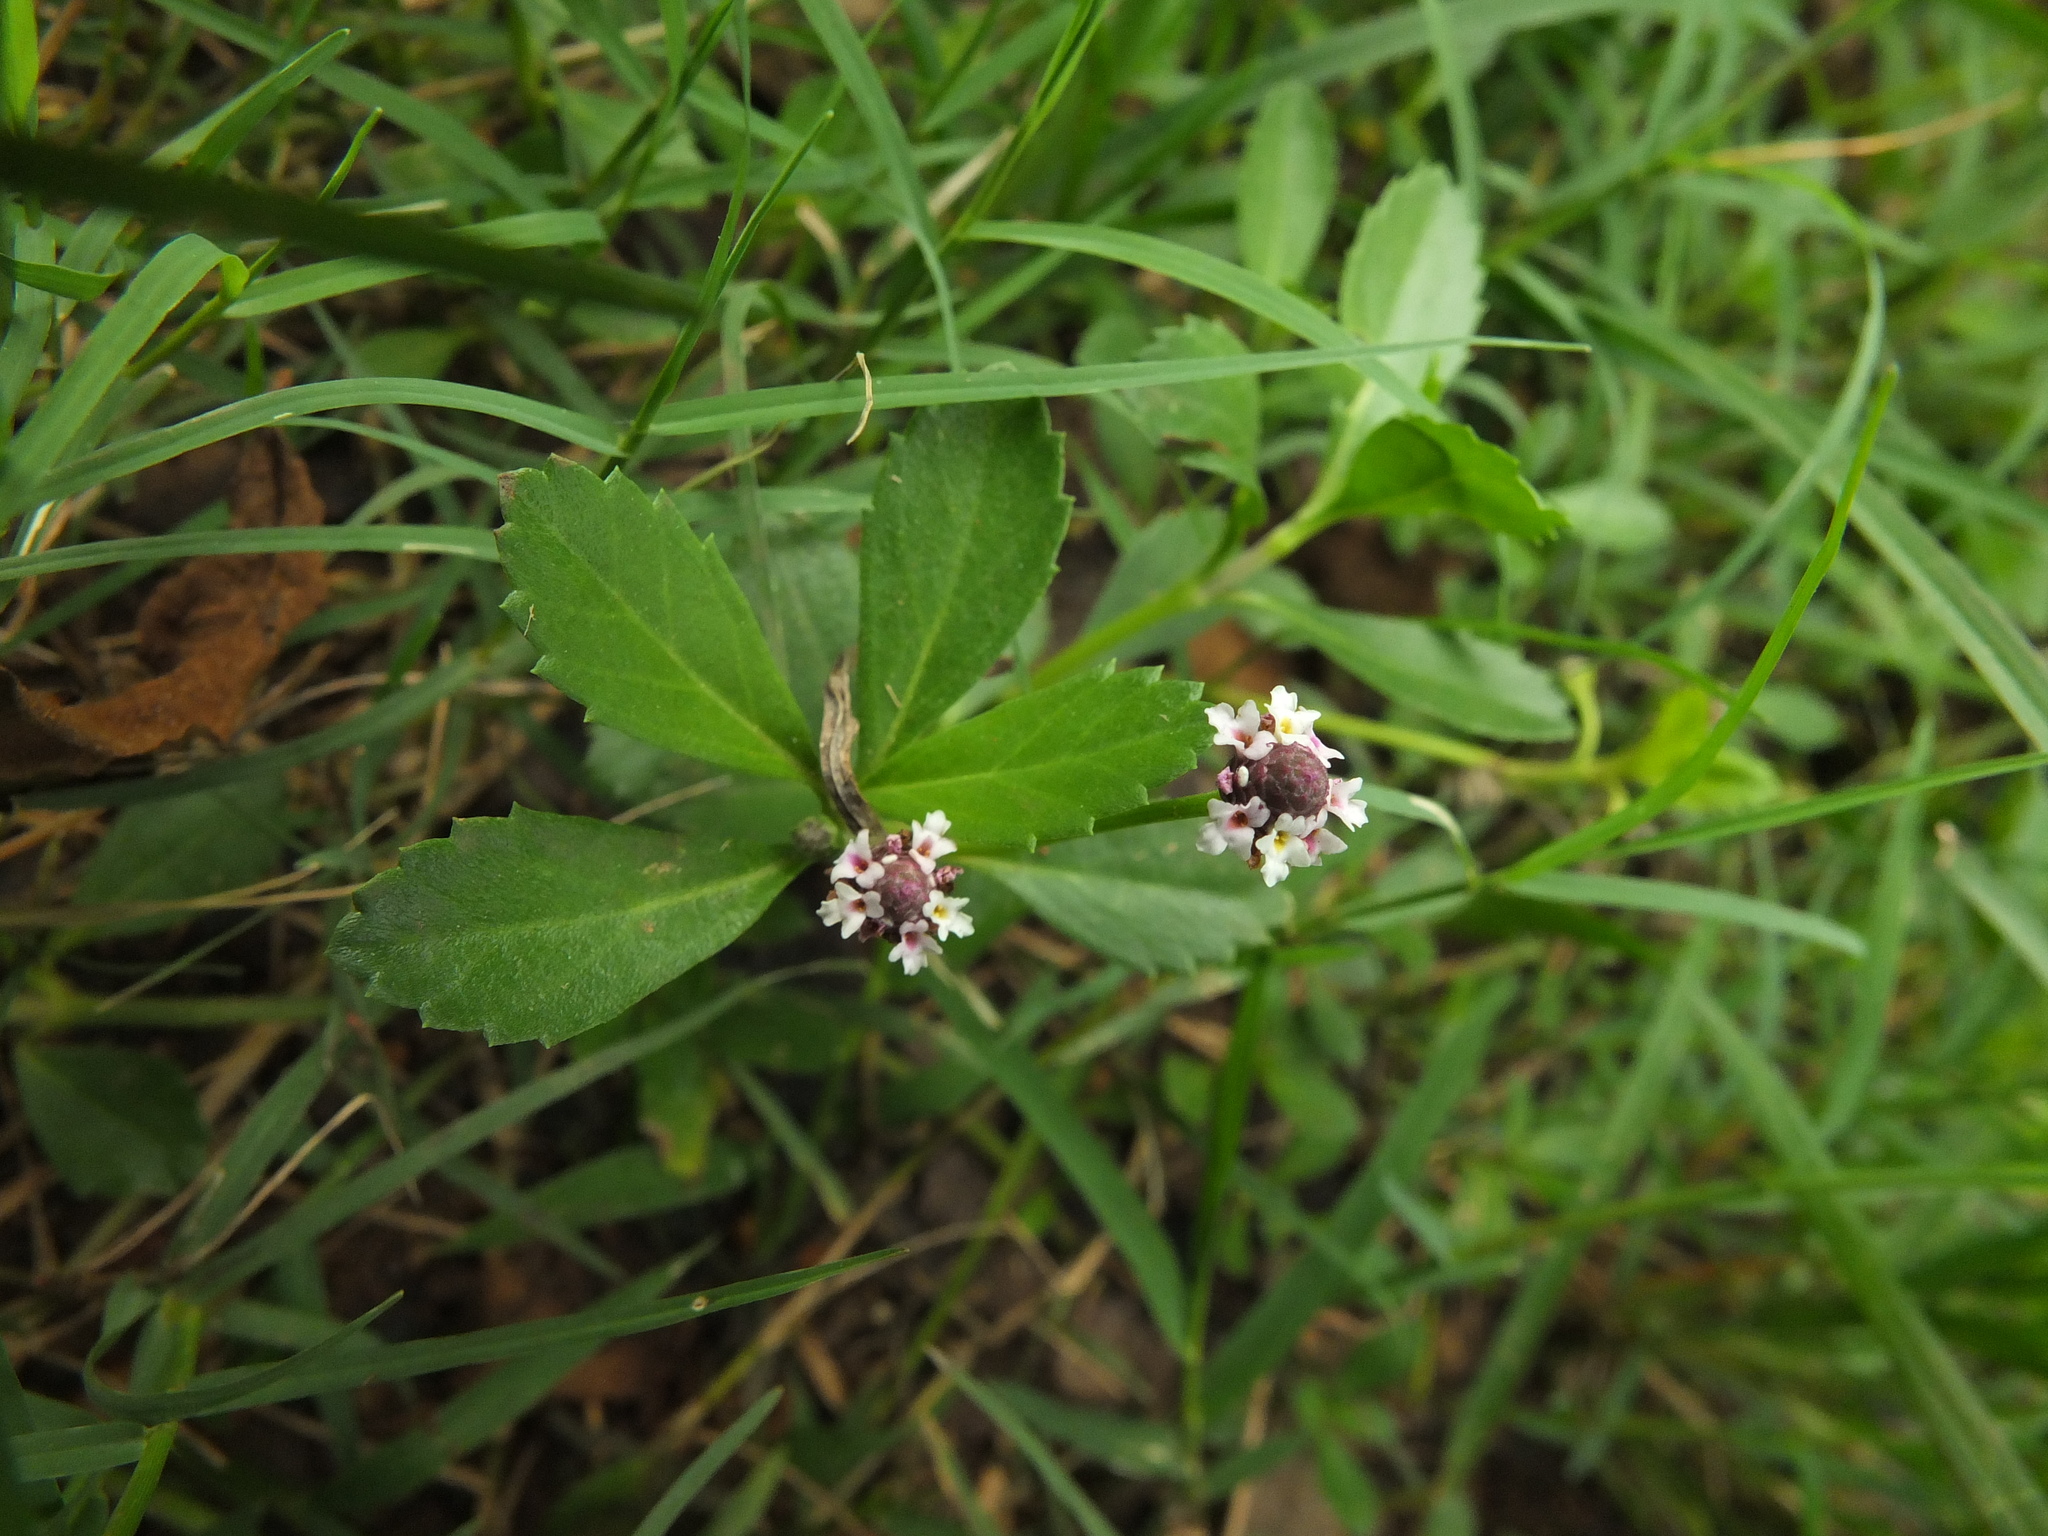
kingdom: Plantae
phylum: Tracheophyta
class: Magnoliopsida
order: Lamiales
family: Verbenaceae
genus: Phyla
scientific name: Phyla nodiflora
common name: Frogfruit
